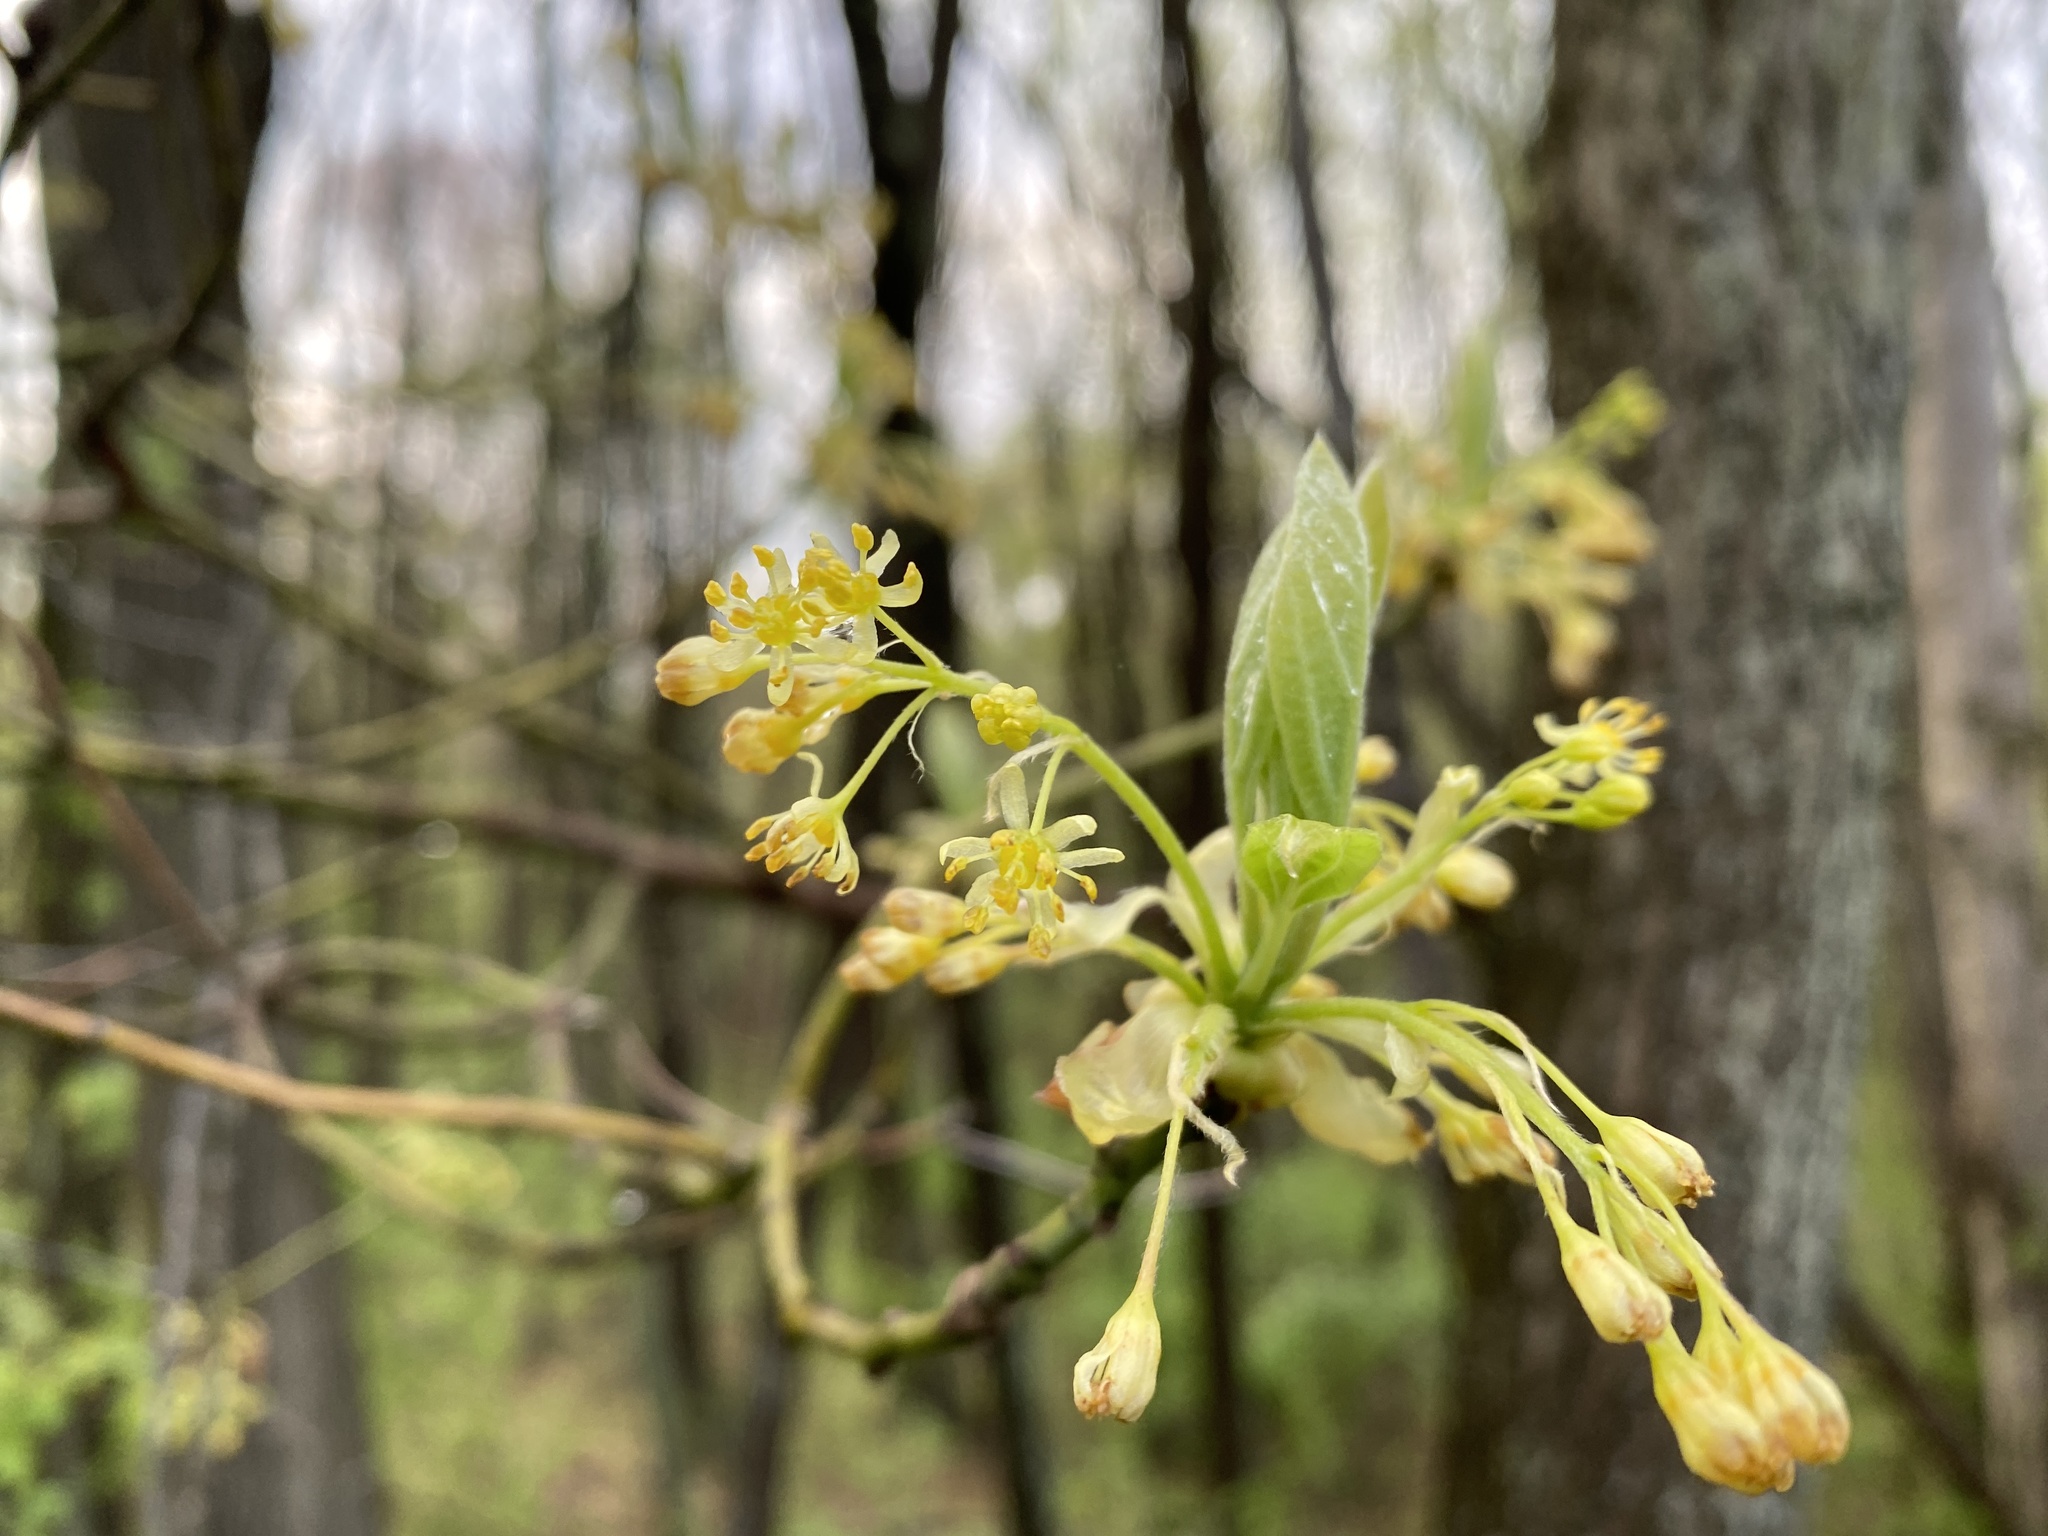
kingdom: Plantae
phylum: Tracheophyta
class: Magnoliopsida
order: Laurales
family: Lauraceae
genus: Sassafras
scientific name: Sassafras albidum
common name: Sassafras
